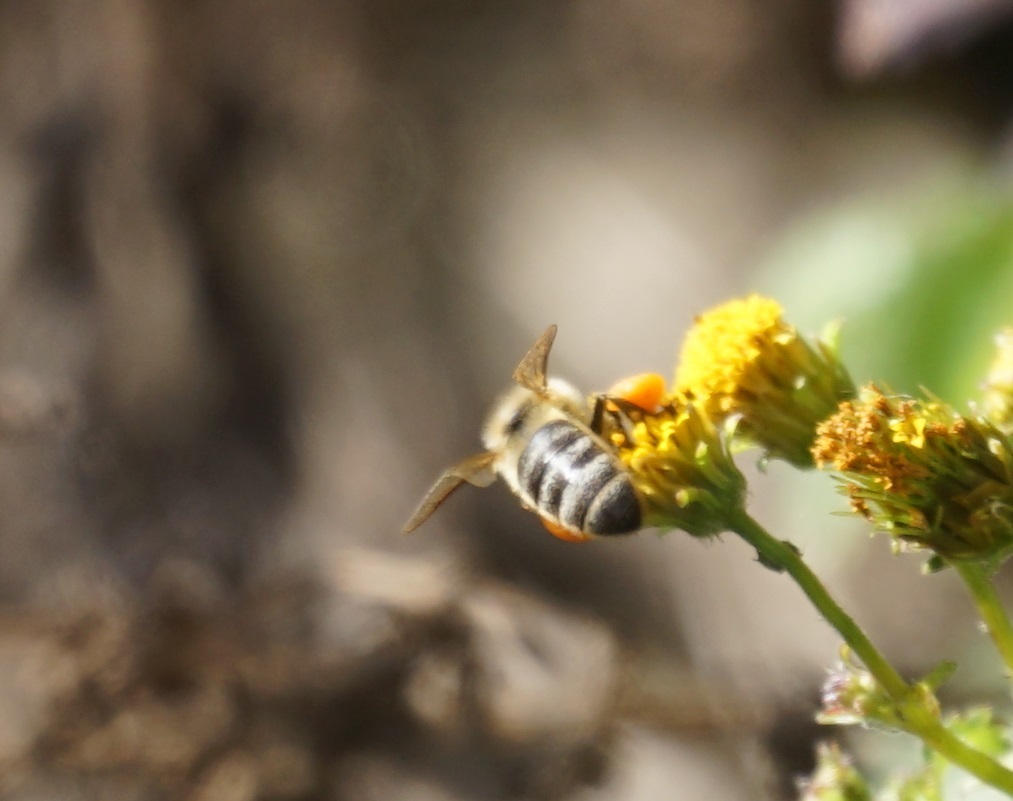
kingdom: Animalia
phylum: Arthropoda
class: Insecta
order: Hymenoptera
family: Apidae
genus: Apis
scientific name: Apis mellifera
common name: Honey bee
